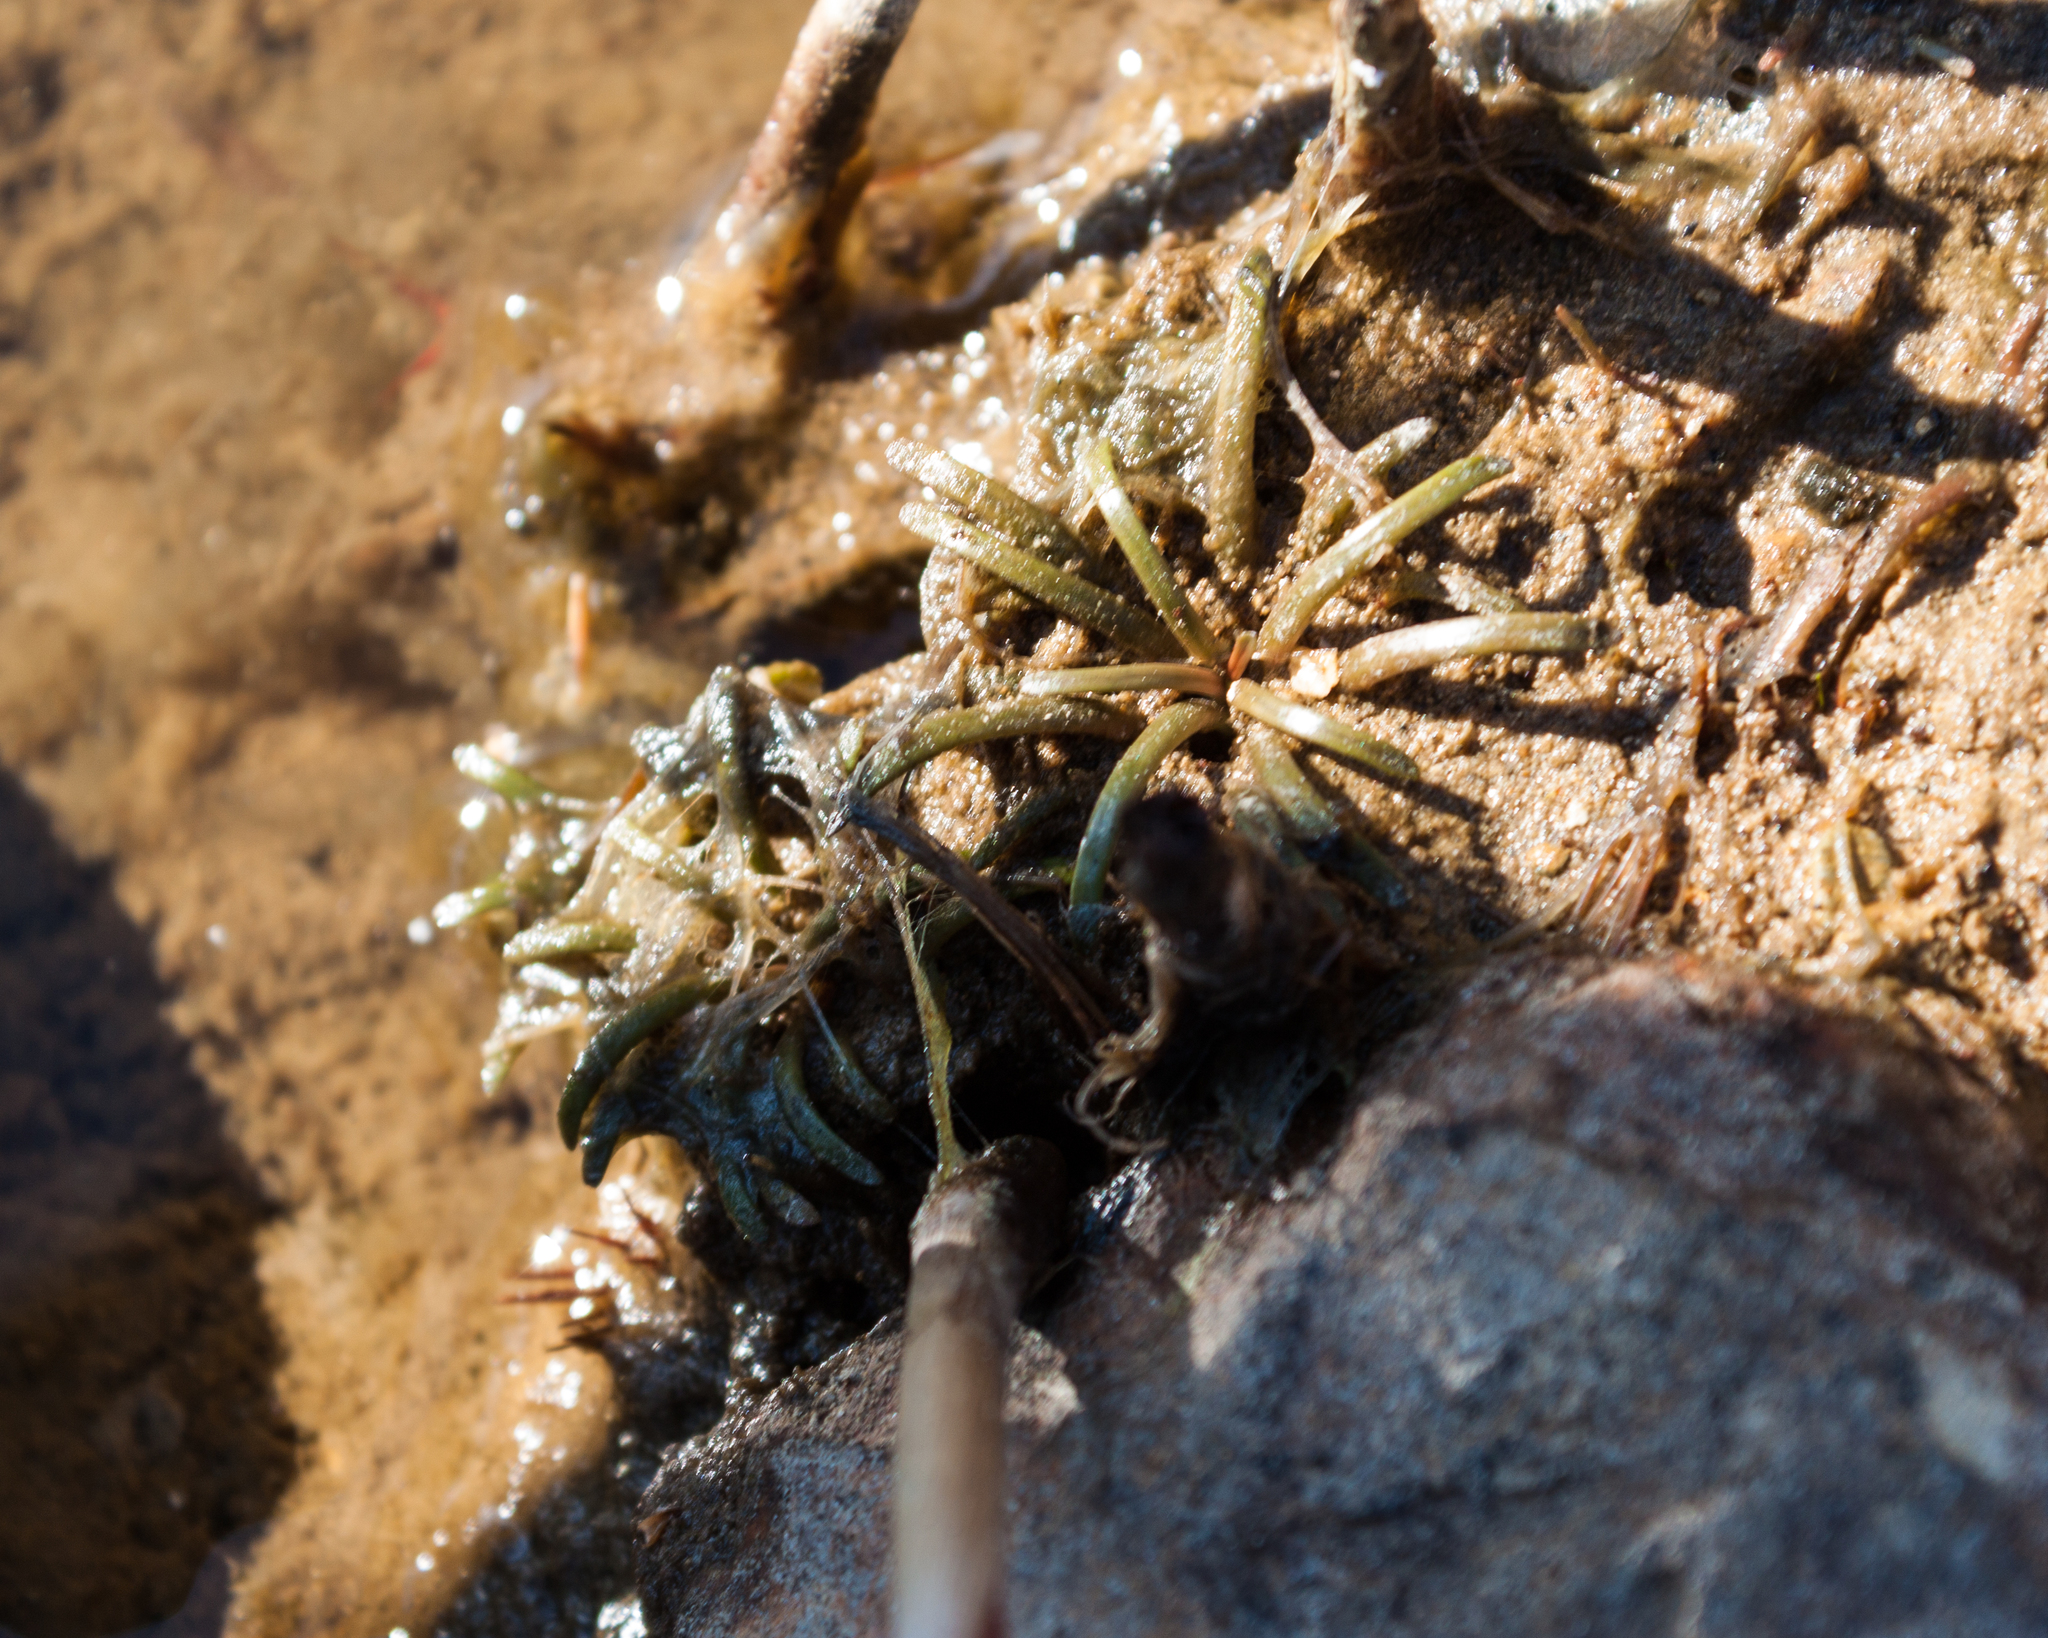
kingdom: Plantae
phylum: Tracheophyta
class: Magnoliopsida
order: Asterales
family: Campanulaceae
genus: Lobelia
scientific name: Lobelia dortmanna
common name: Water lobelia
